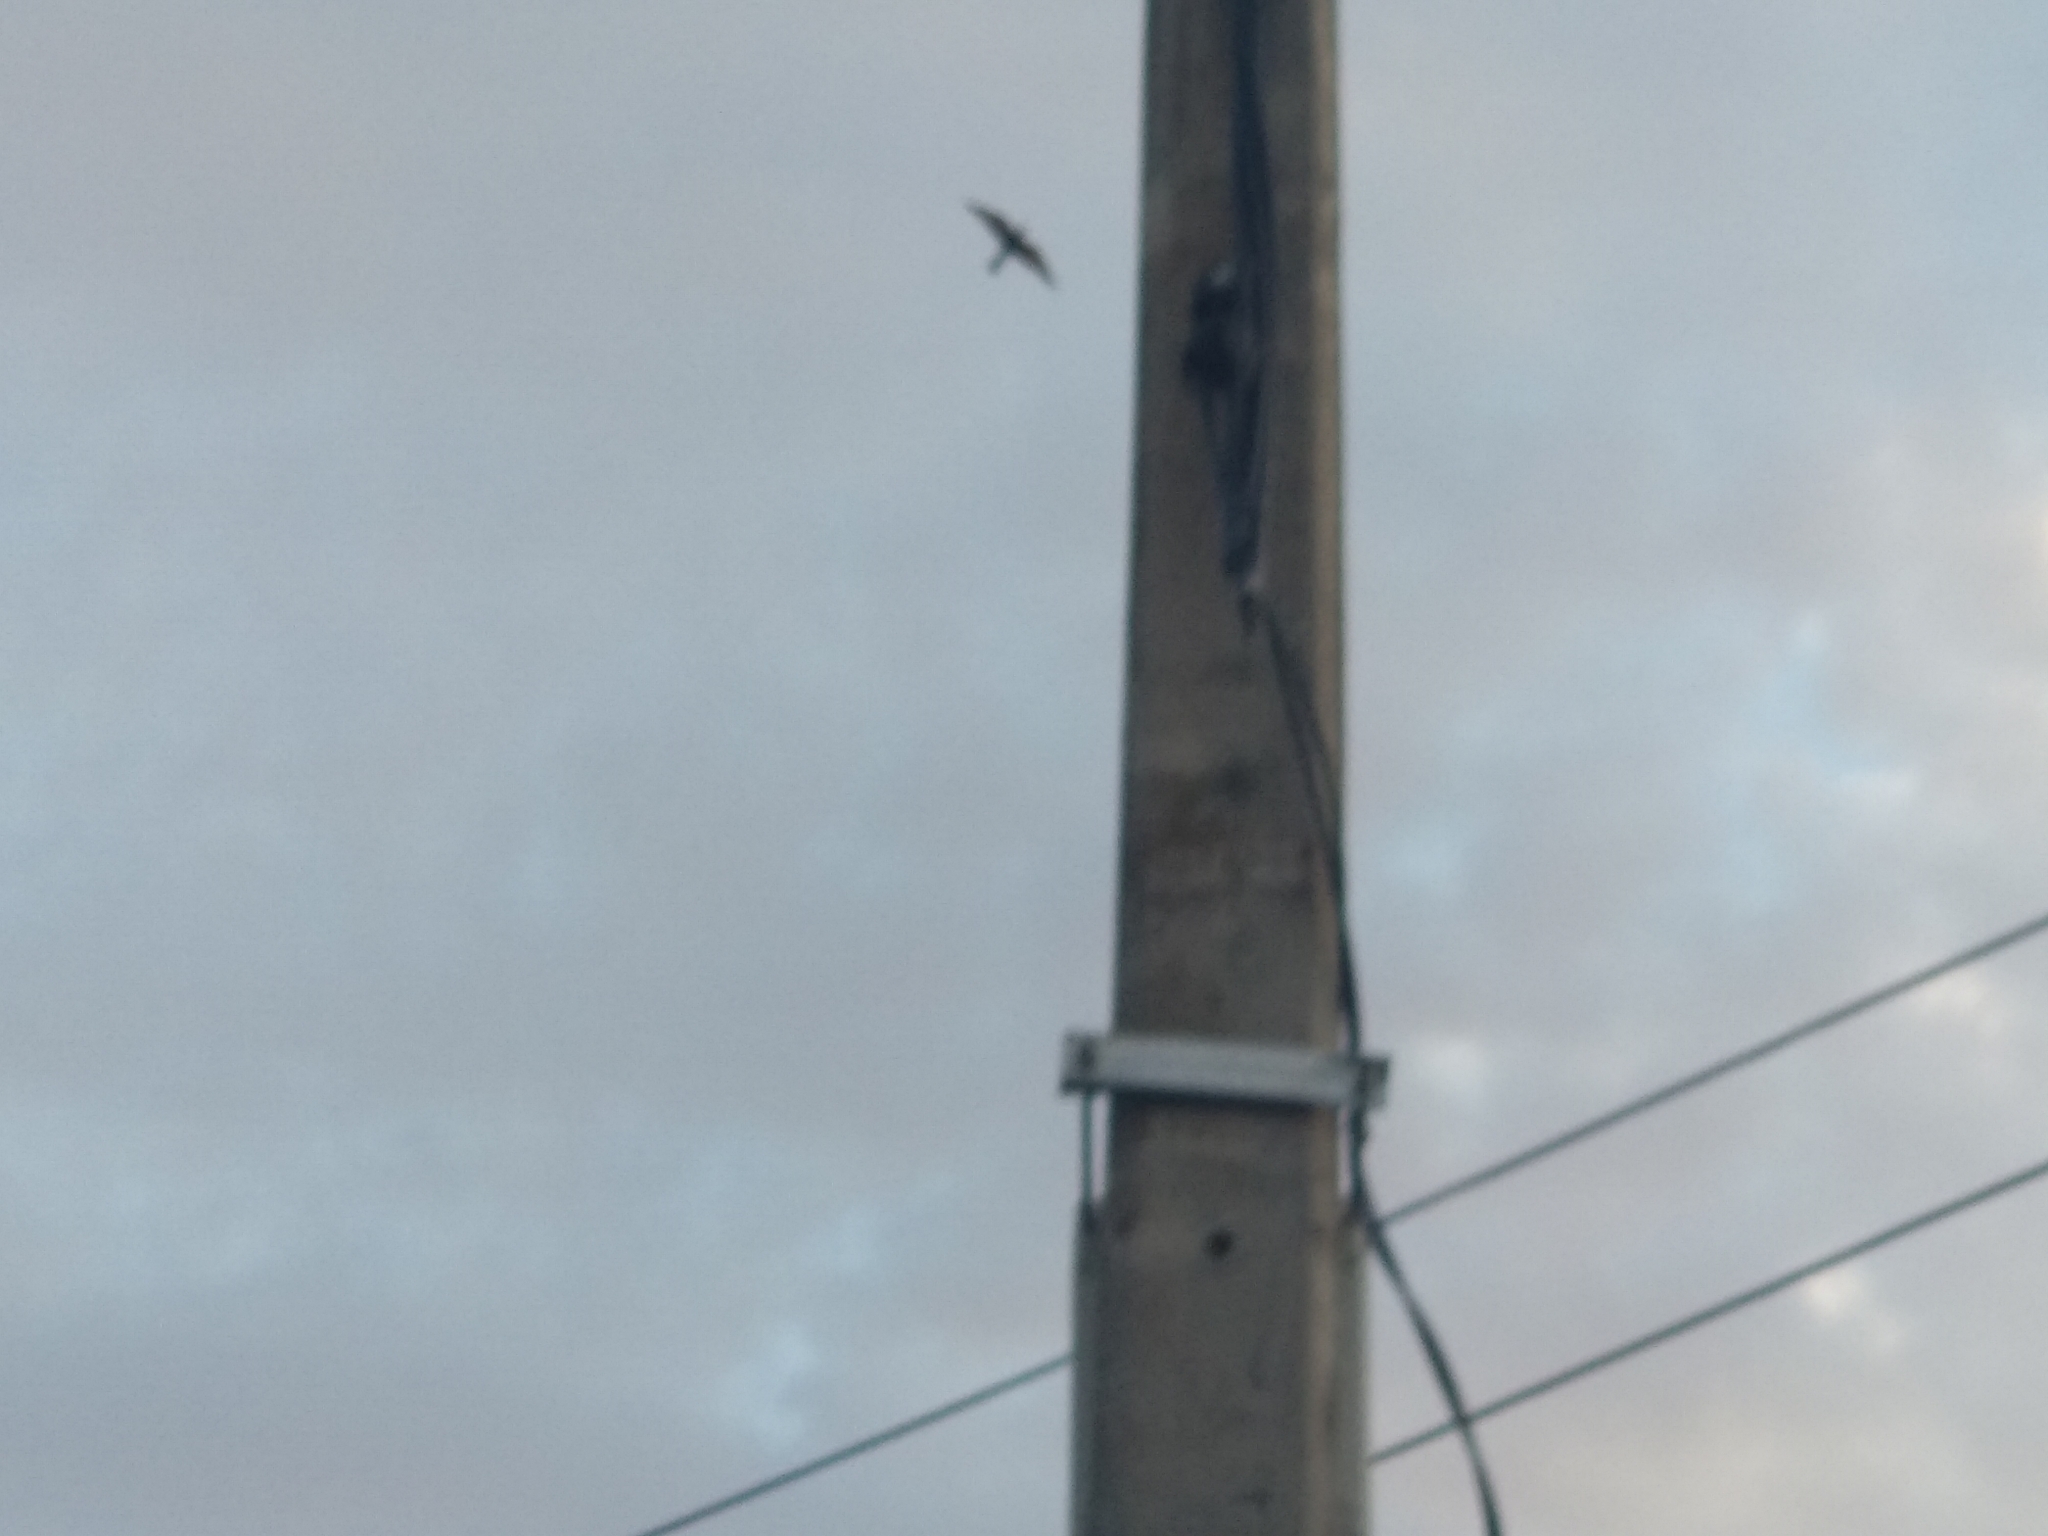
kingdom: Animalia
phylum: Chordata
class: Aves
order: Coraciiformes
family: Meropidae
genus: Merops
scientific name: Merops apiaster
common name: European bee-eater
